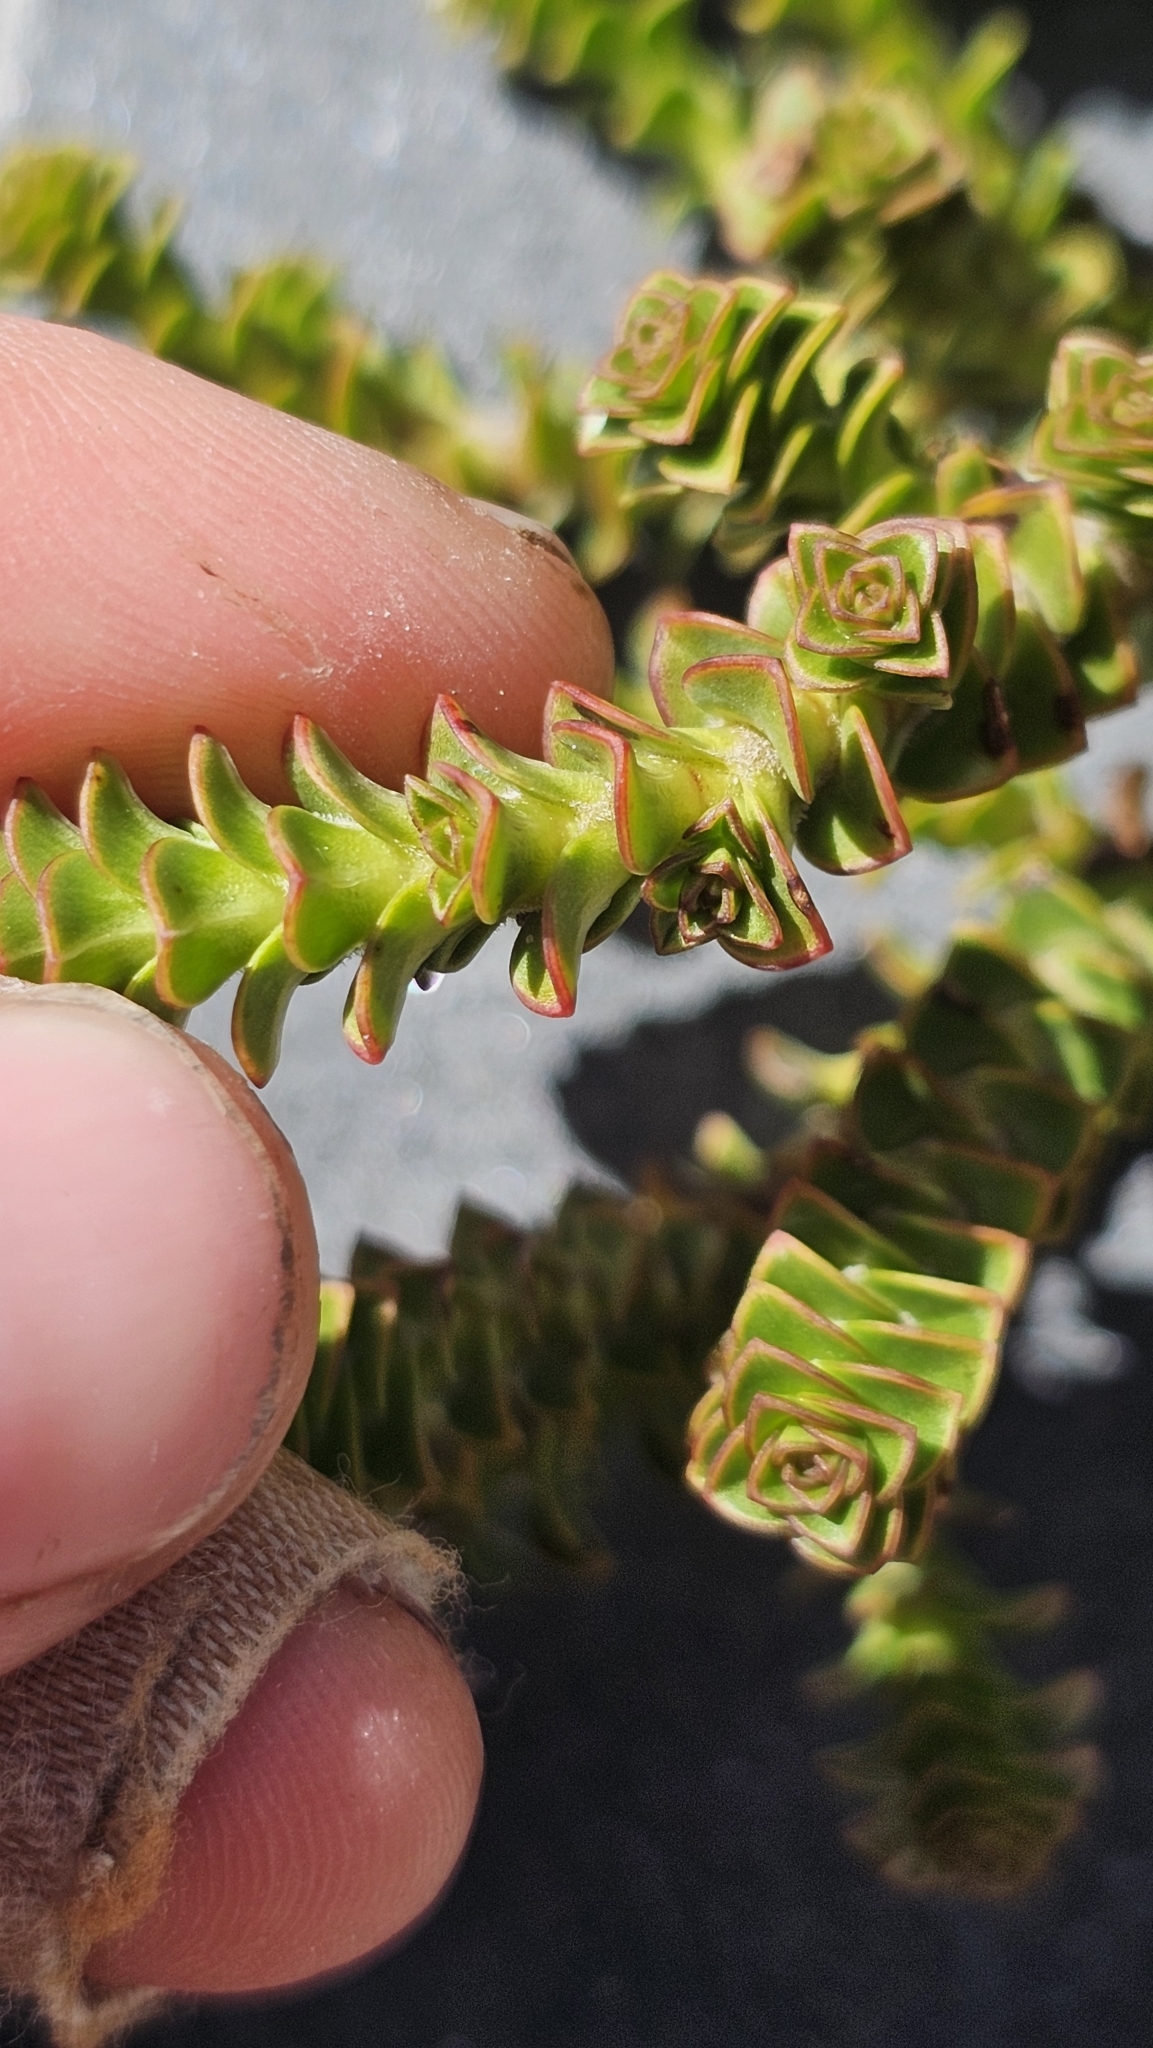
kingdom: Plantae
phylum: Tracheophyta
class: Magnoliopsida
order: Lamiales
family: Plantaginaceae
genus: Veronica
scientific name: Veronica epacridea
